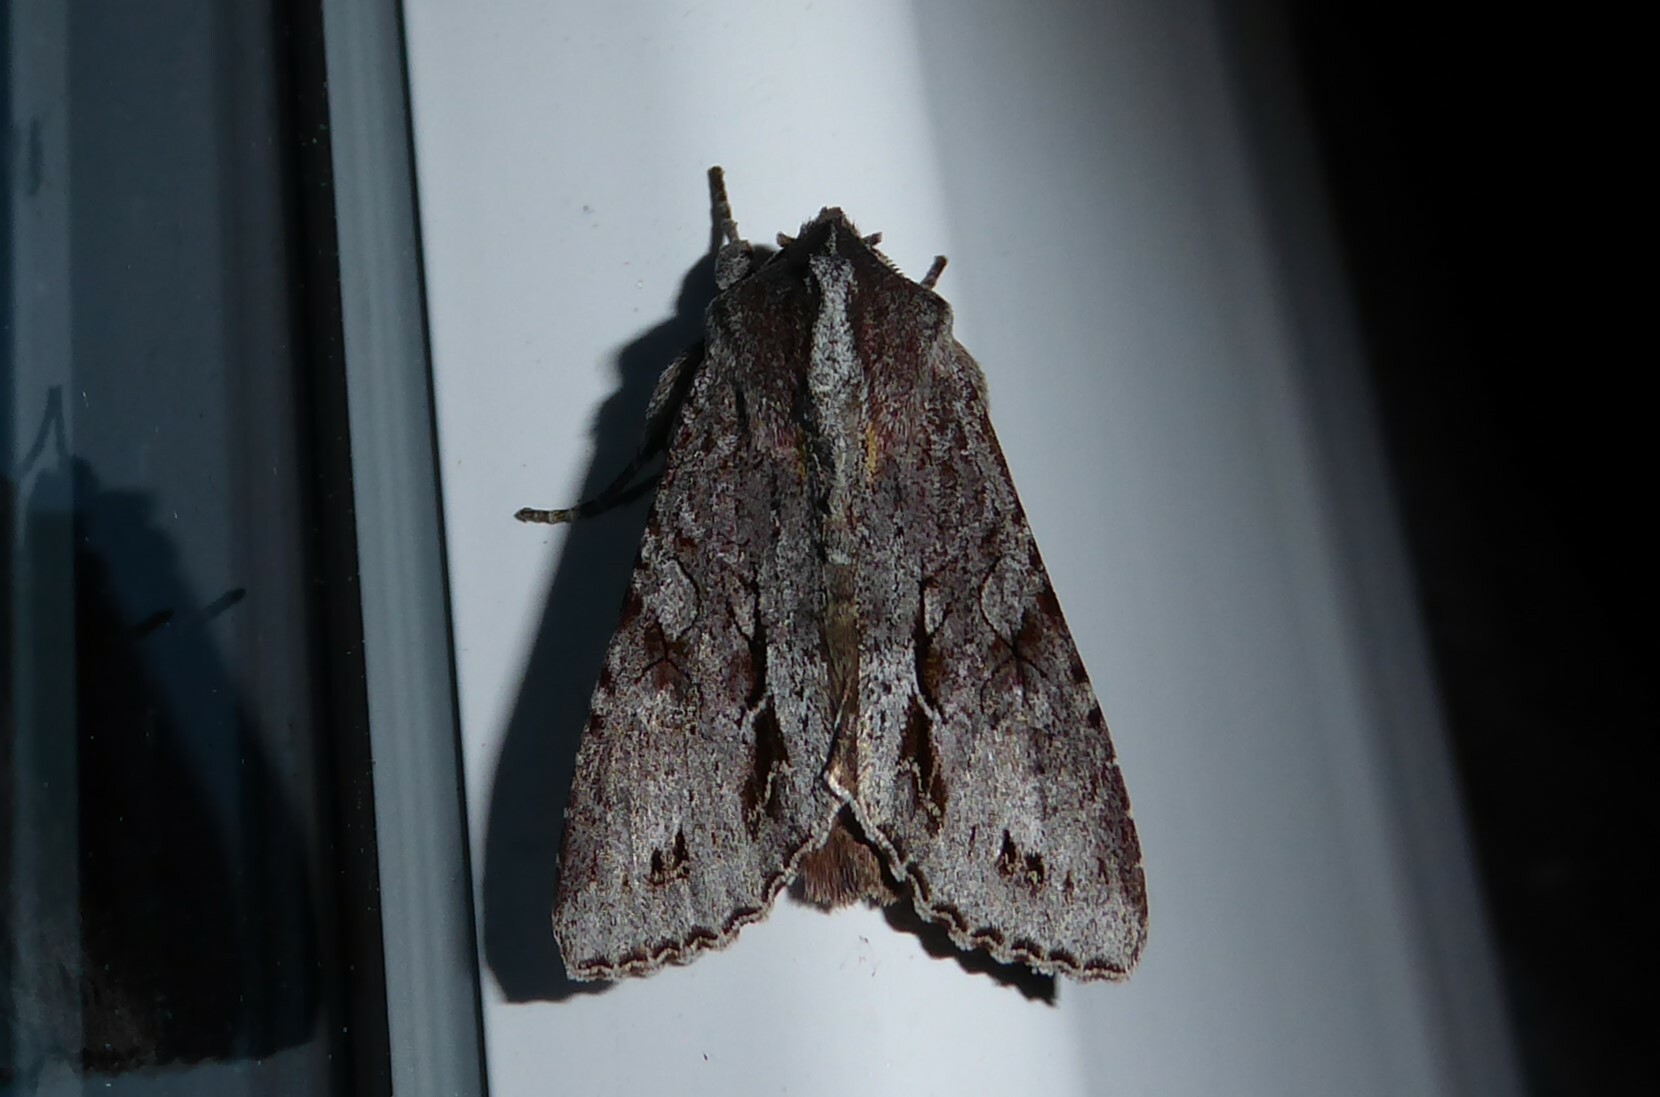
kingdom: Animalia
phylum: Arthropoda
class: Insecta
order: Lepidoptera
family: Noctuidae
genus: Ichneutica
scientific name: Ichneutica
